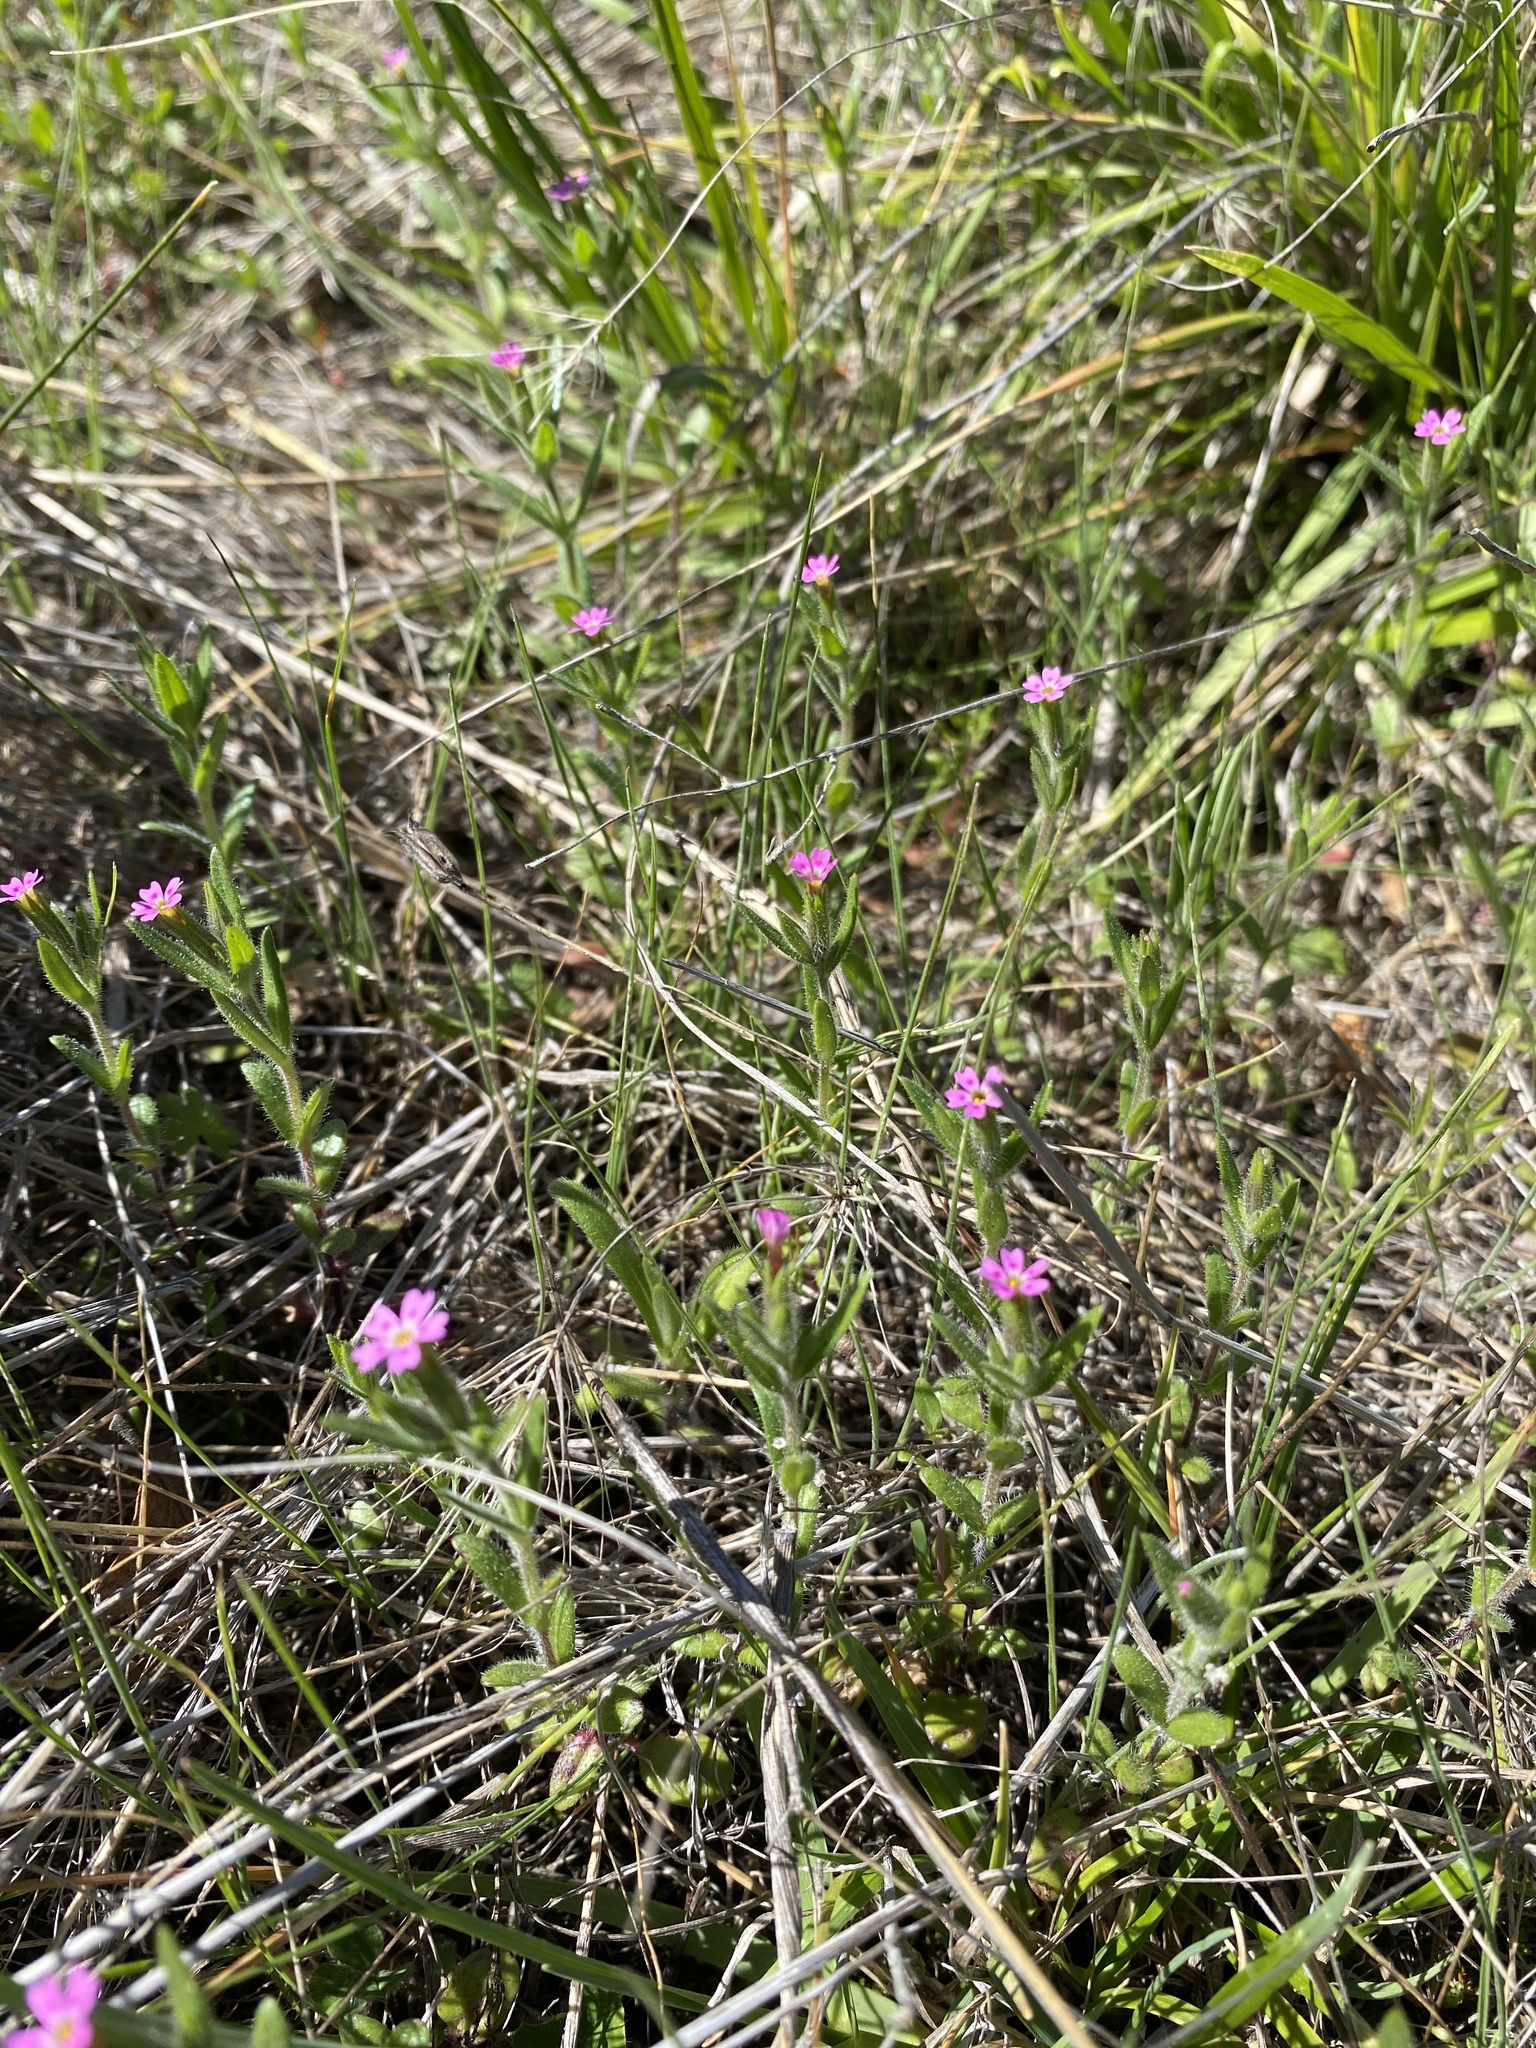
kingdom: Plantae
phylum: Tracheophyta
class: Magnoliopsida
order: Ericales
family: Polemoniaceae
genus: Phlox
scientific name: Phlox gracilis
